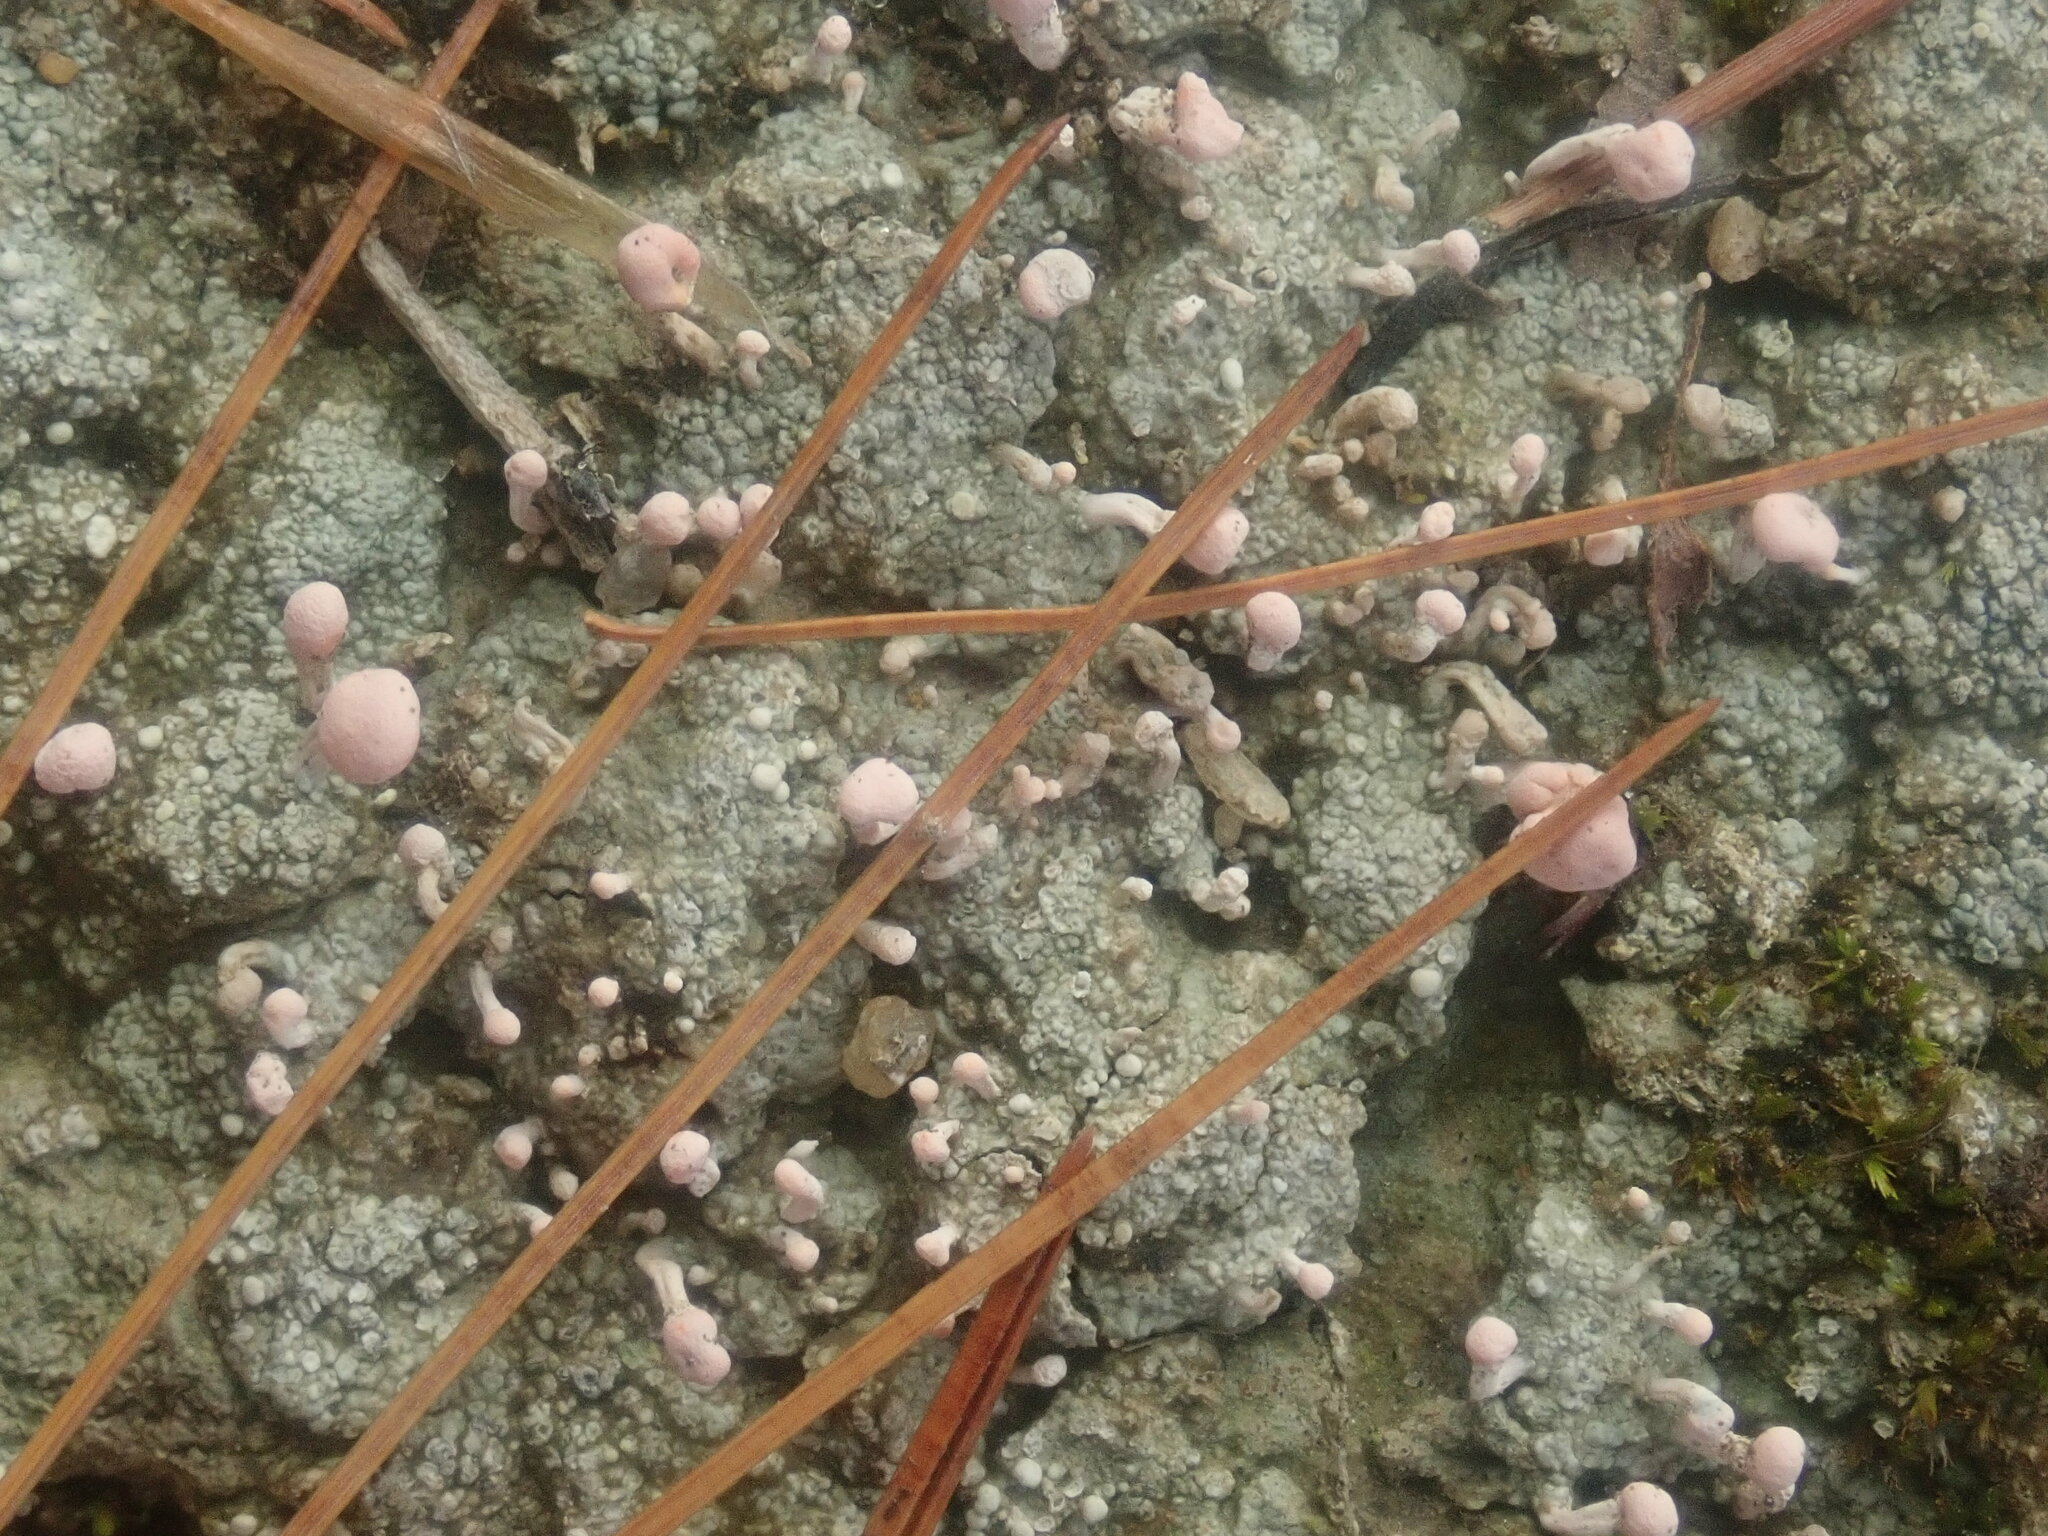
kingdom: Fungi
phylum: Ascomycota
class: Lecanoromycetes
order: Pertusariales
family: Icmadophilaceae
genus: Dibaeis
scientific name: Dibaeis baeomyces
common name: Pink earth lichen
